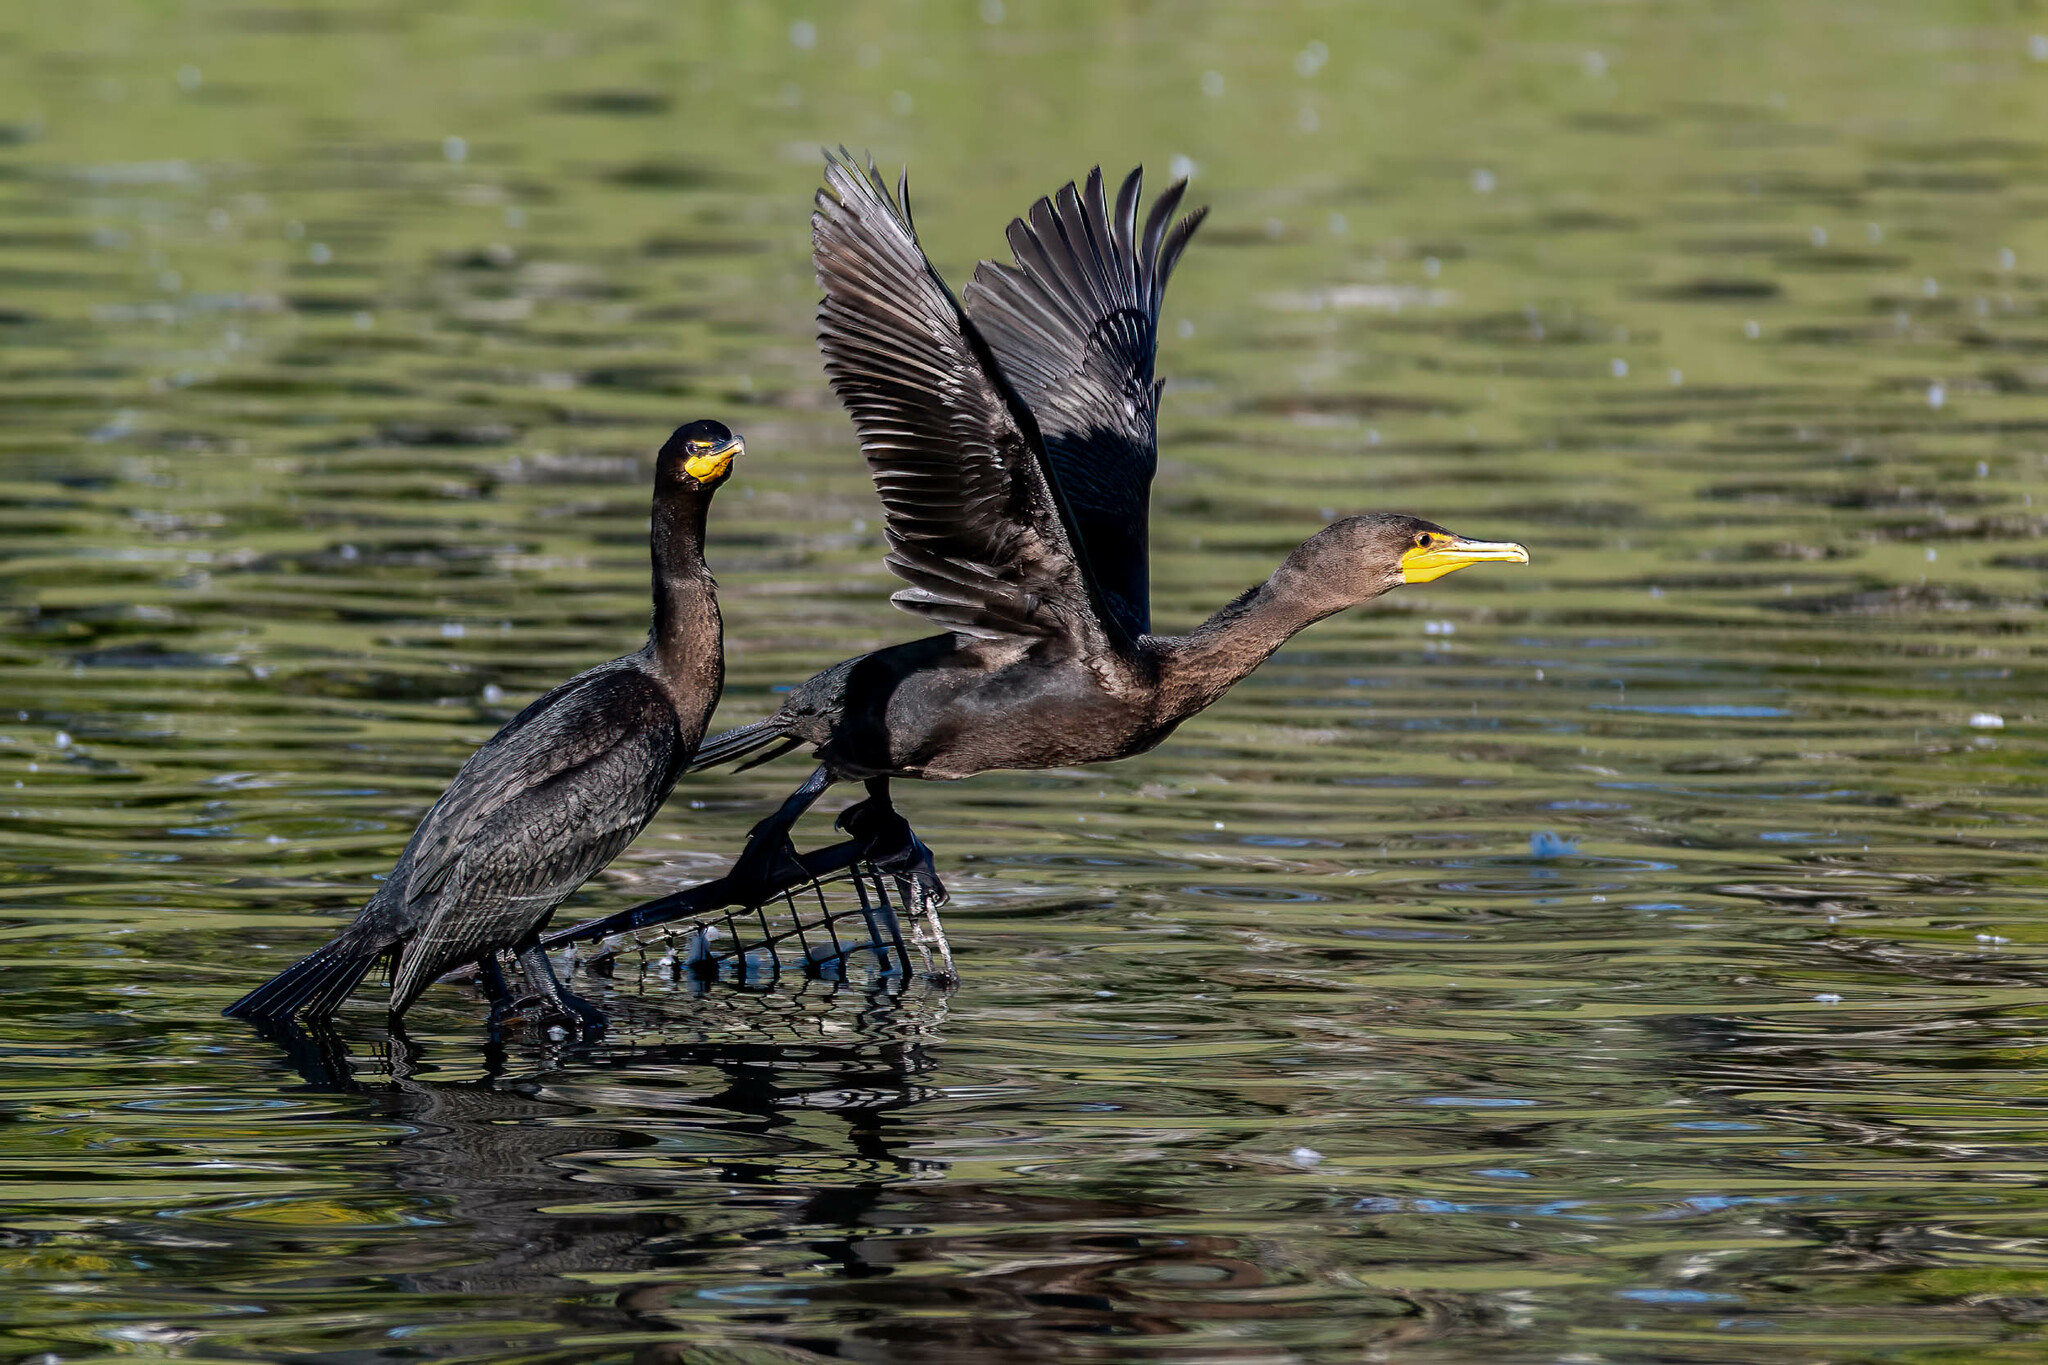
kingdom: Animalia
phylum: Chordata
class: Aves
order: Suliformes
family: Phalacrocoracidae
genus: Phalacrocorax
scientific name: Phalacrocorax auritus
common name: Double-crested cormorant
